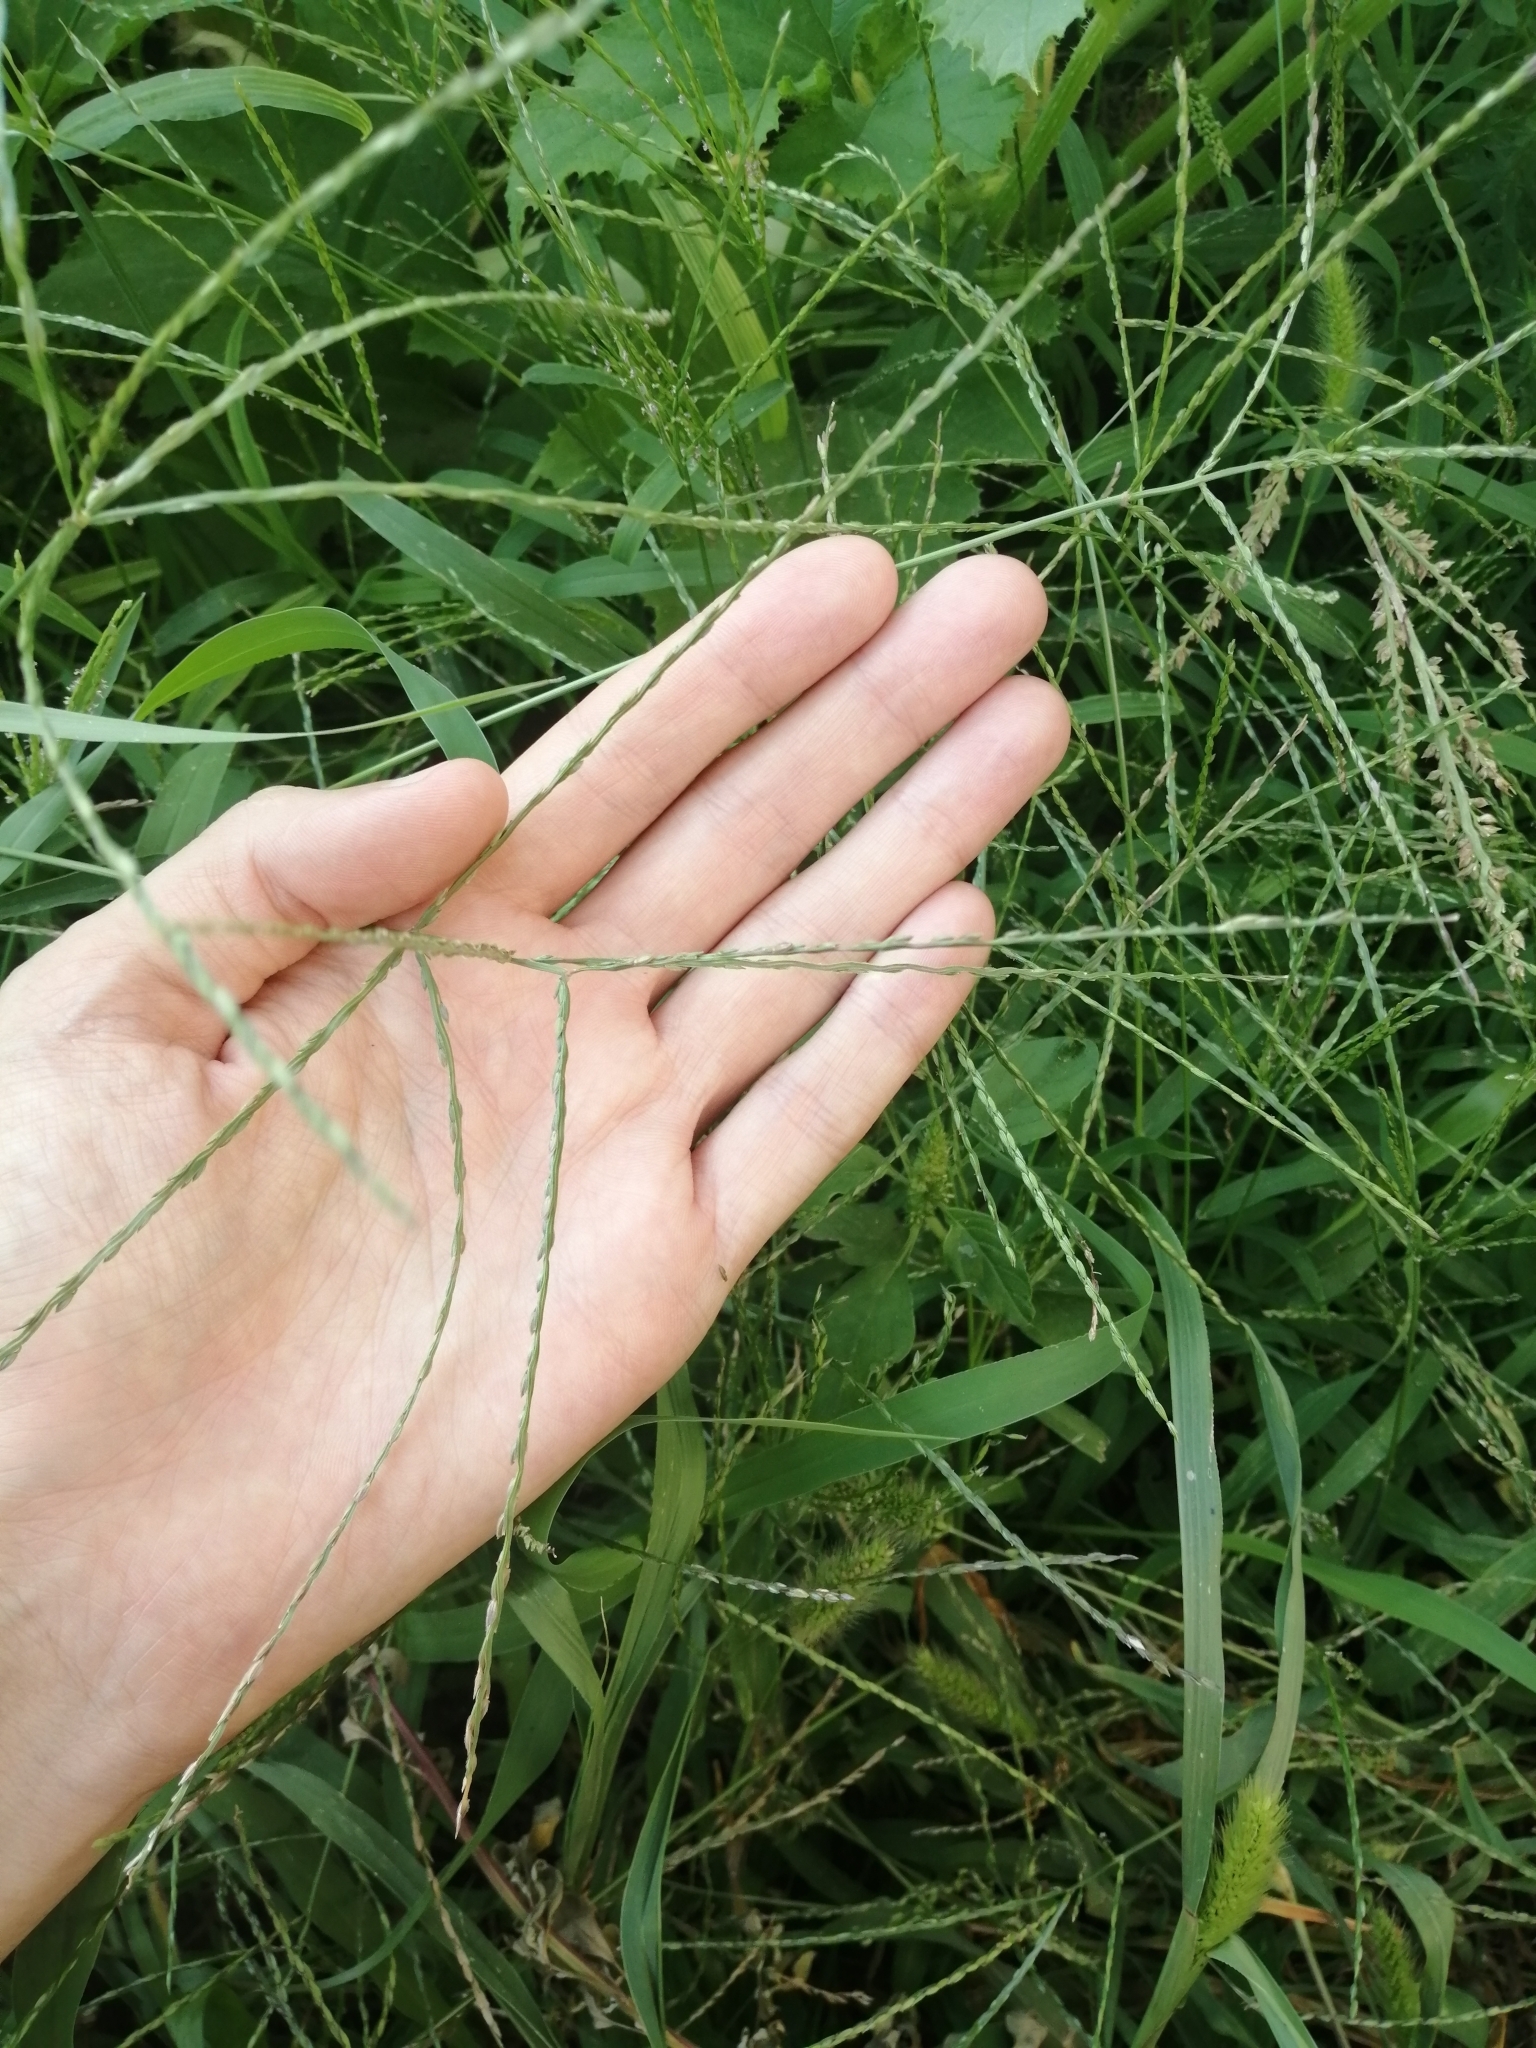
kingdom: Plantae
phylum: Tracheophyta
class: Liliopsida
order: Poales
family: Poaceae
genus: Digitaria
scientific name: Digitaria ischaemum
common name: Smooth crabgrass
